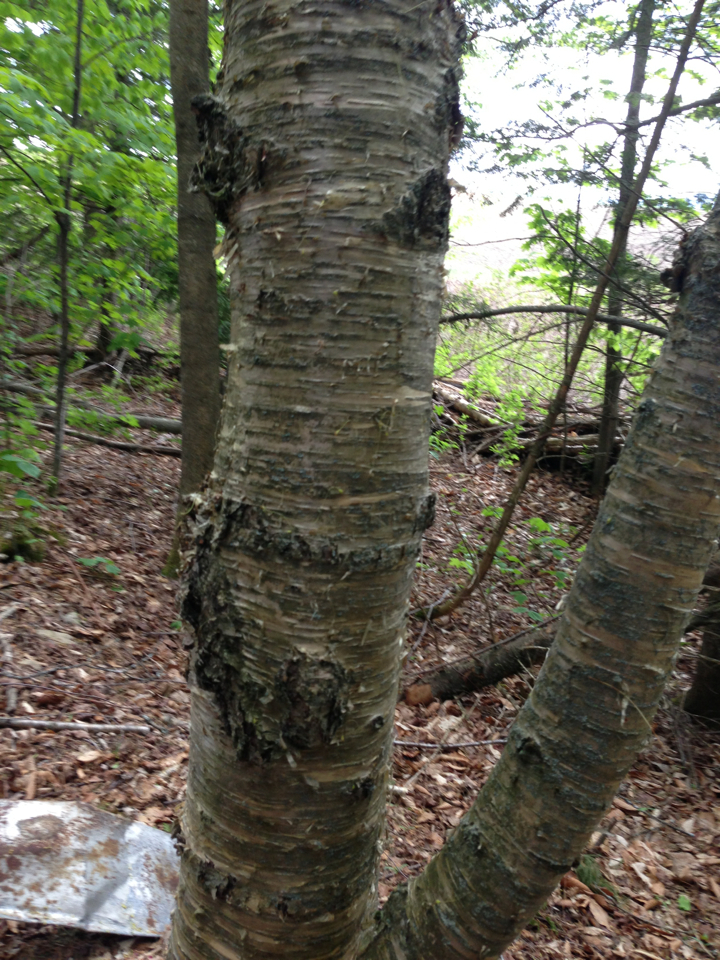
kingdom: Plantae
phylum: Tracheophyta
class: Magnoliopsida
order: Fagales
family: Betulaceae
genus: Betula
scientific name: Betula alleghaniensis
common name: Yellow birch
